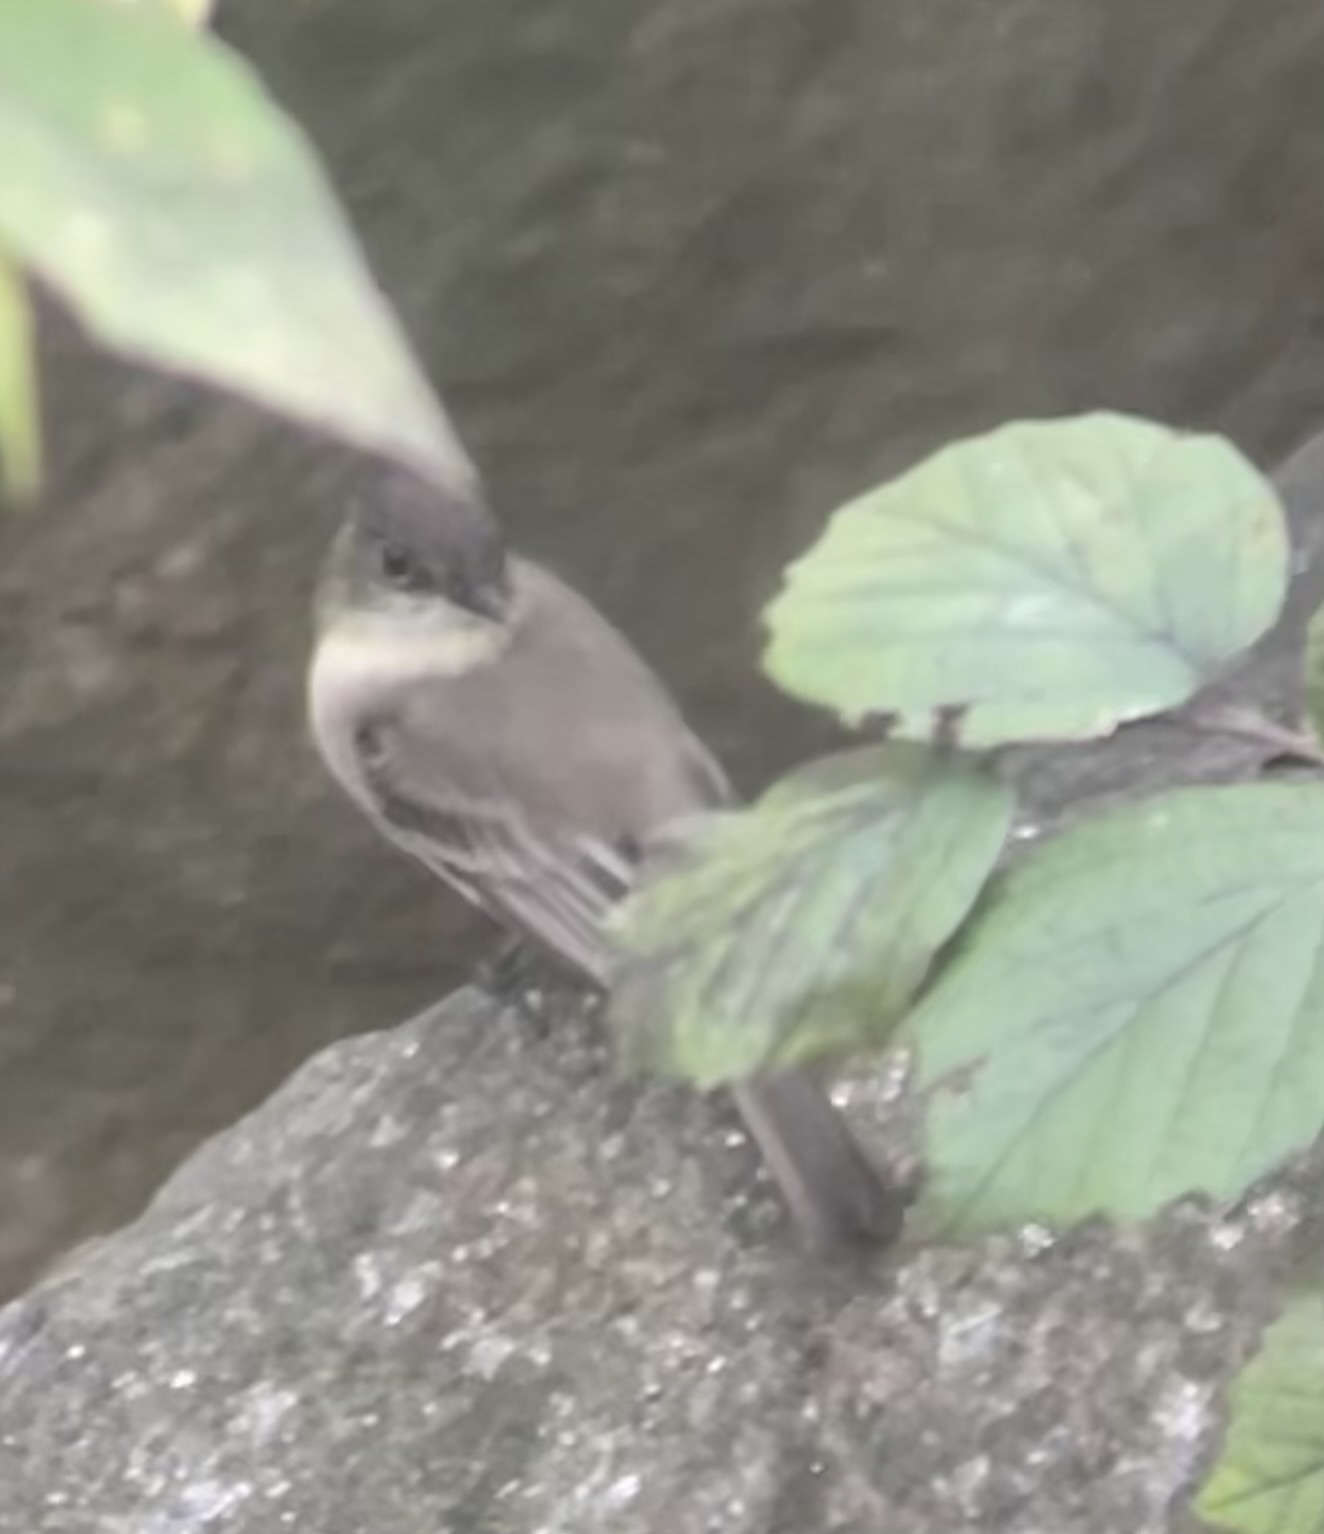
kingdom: Animalia
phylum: Chordata
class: Aves
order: Passeriformes
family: Tyrannidae
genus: Sayornis
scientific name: Sayornis phoebe
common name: Eastern phoebe
